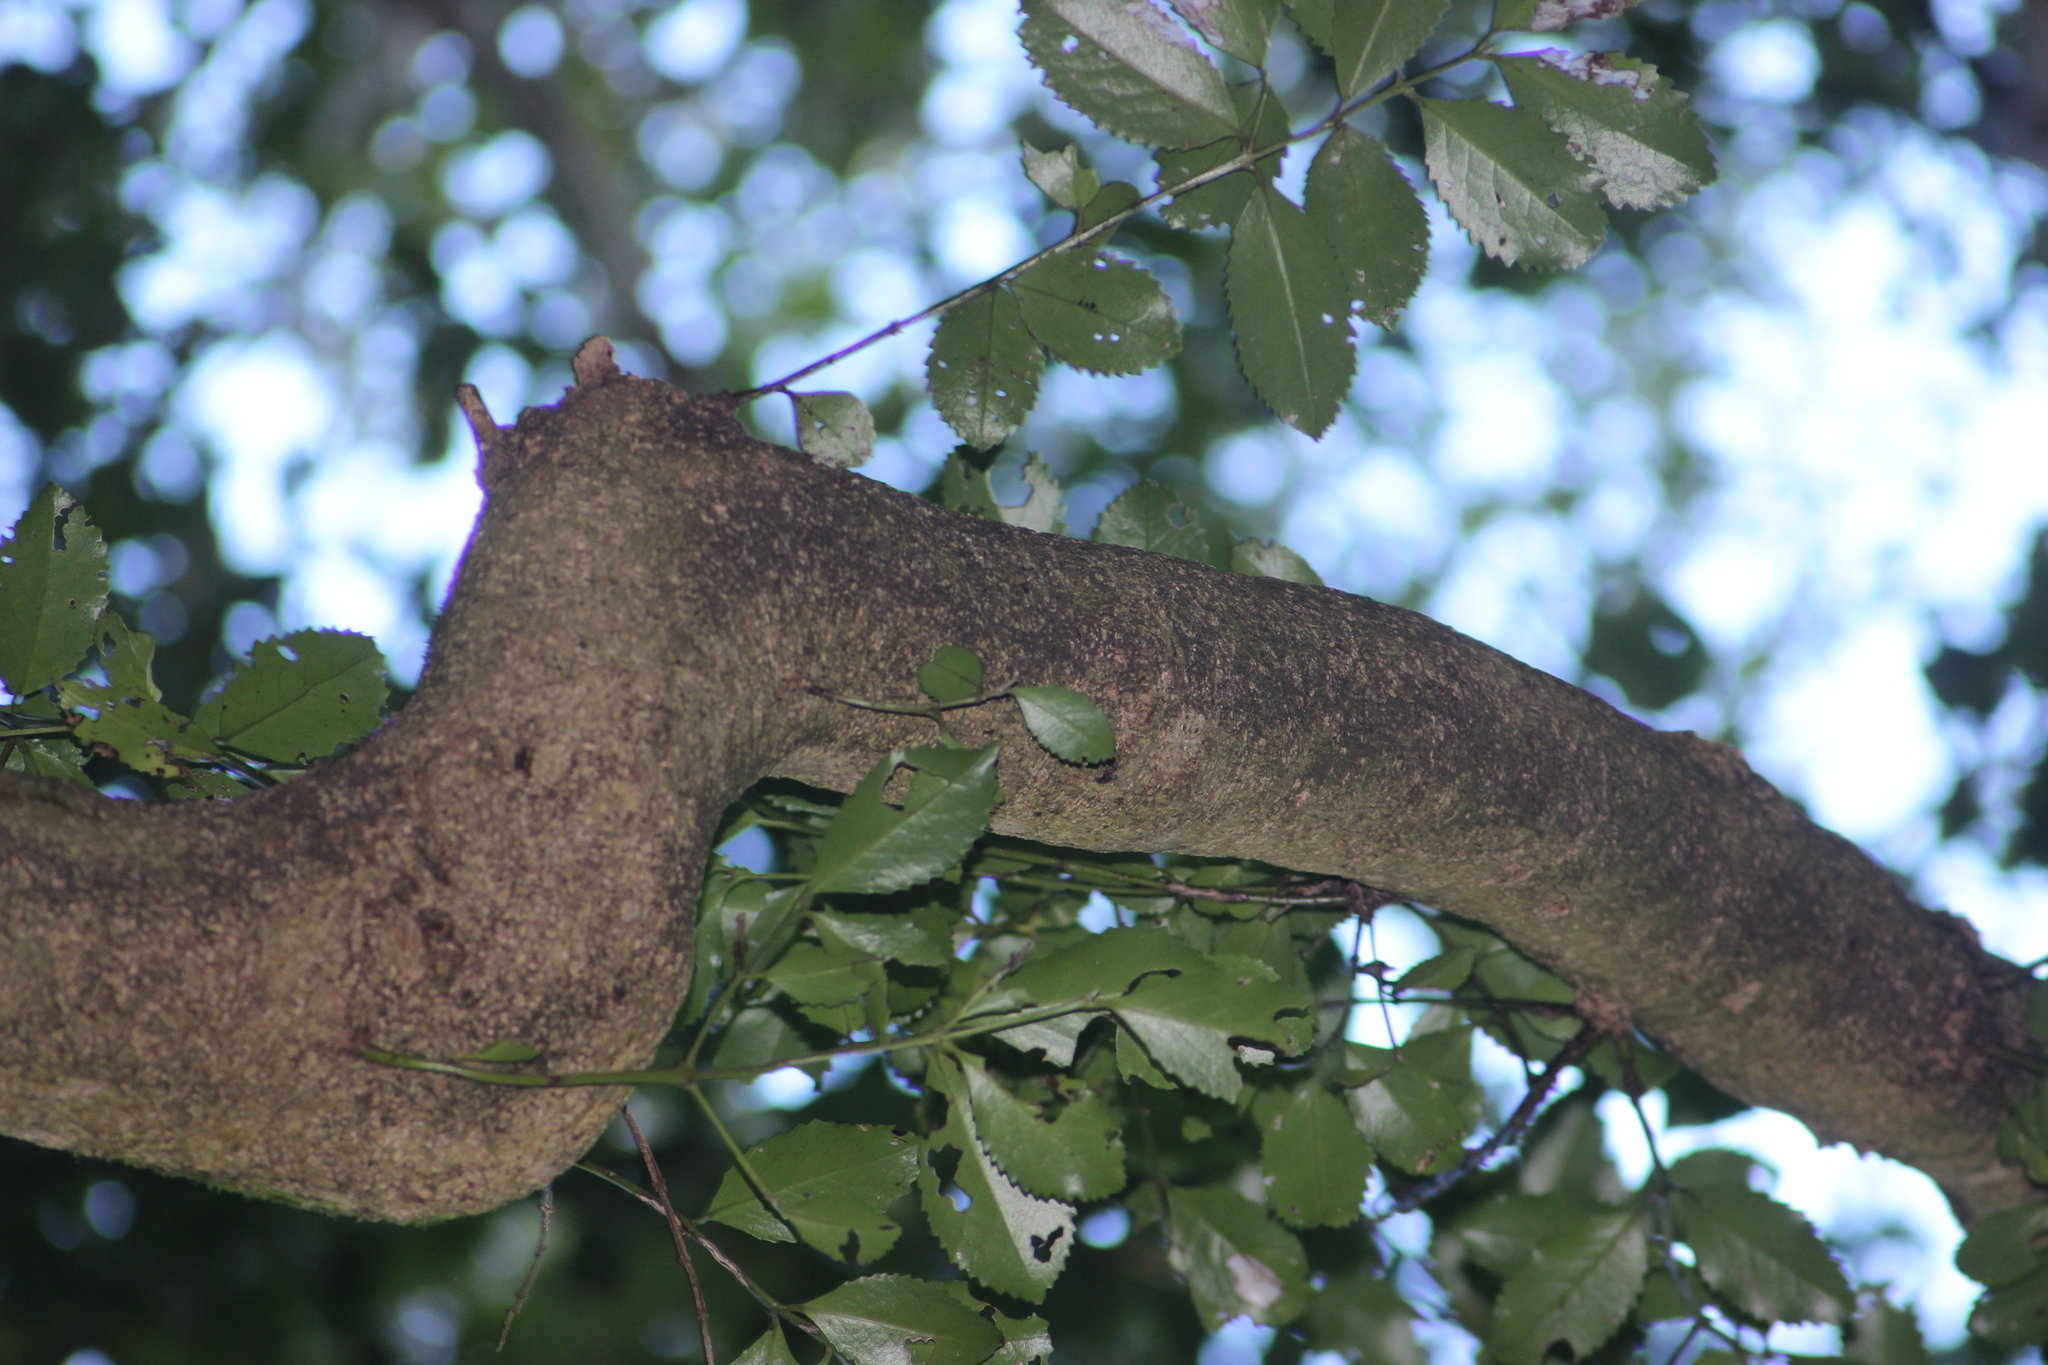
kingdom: Plantae
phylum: Tracheophyta
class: Magnoliopsida
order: Laurales
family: Atherospermataceae
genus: Laurelia
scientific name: Laurelia novae-zelandiae
